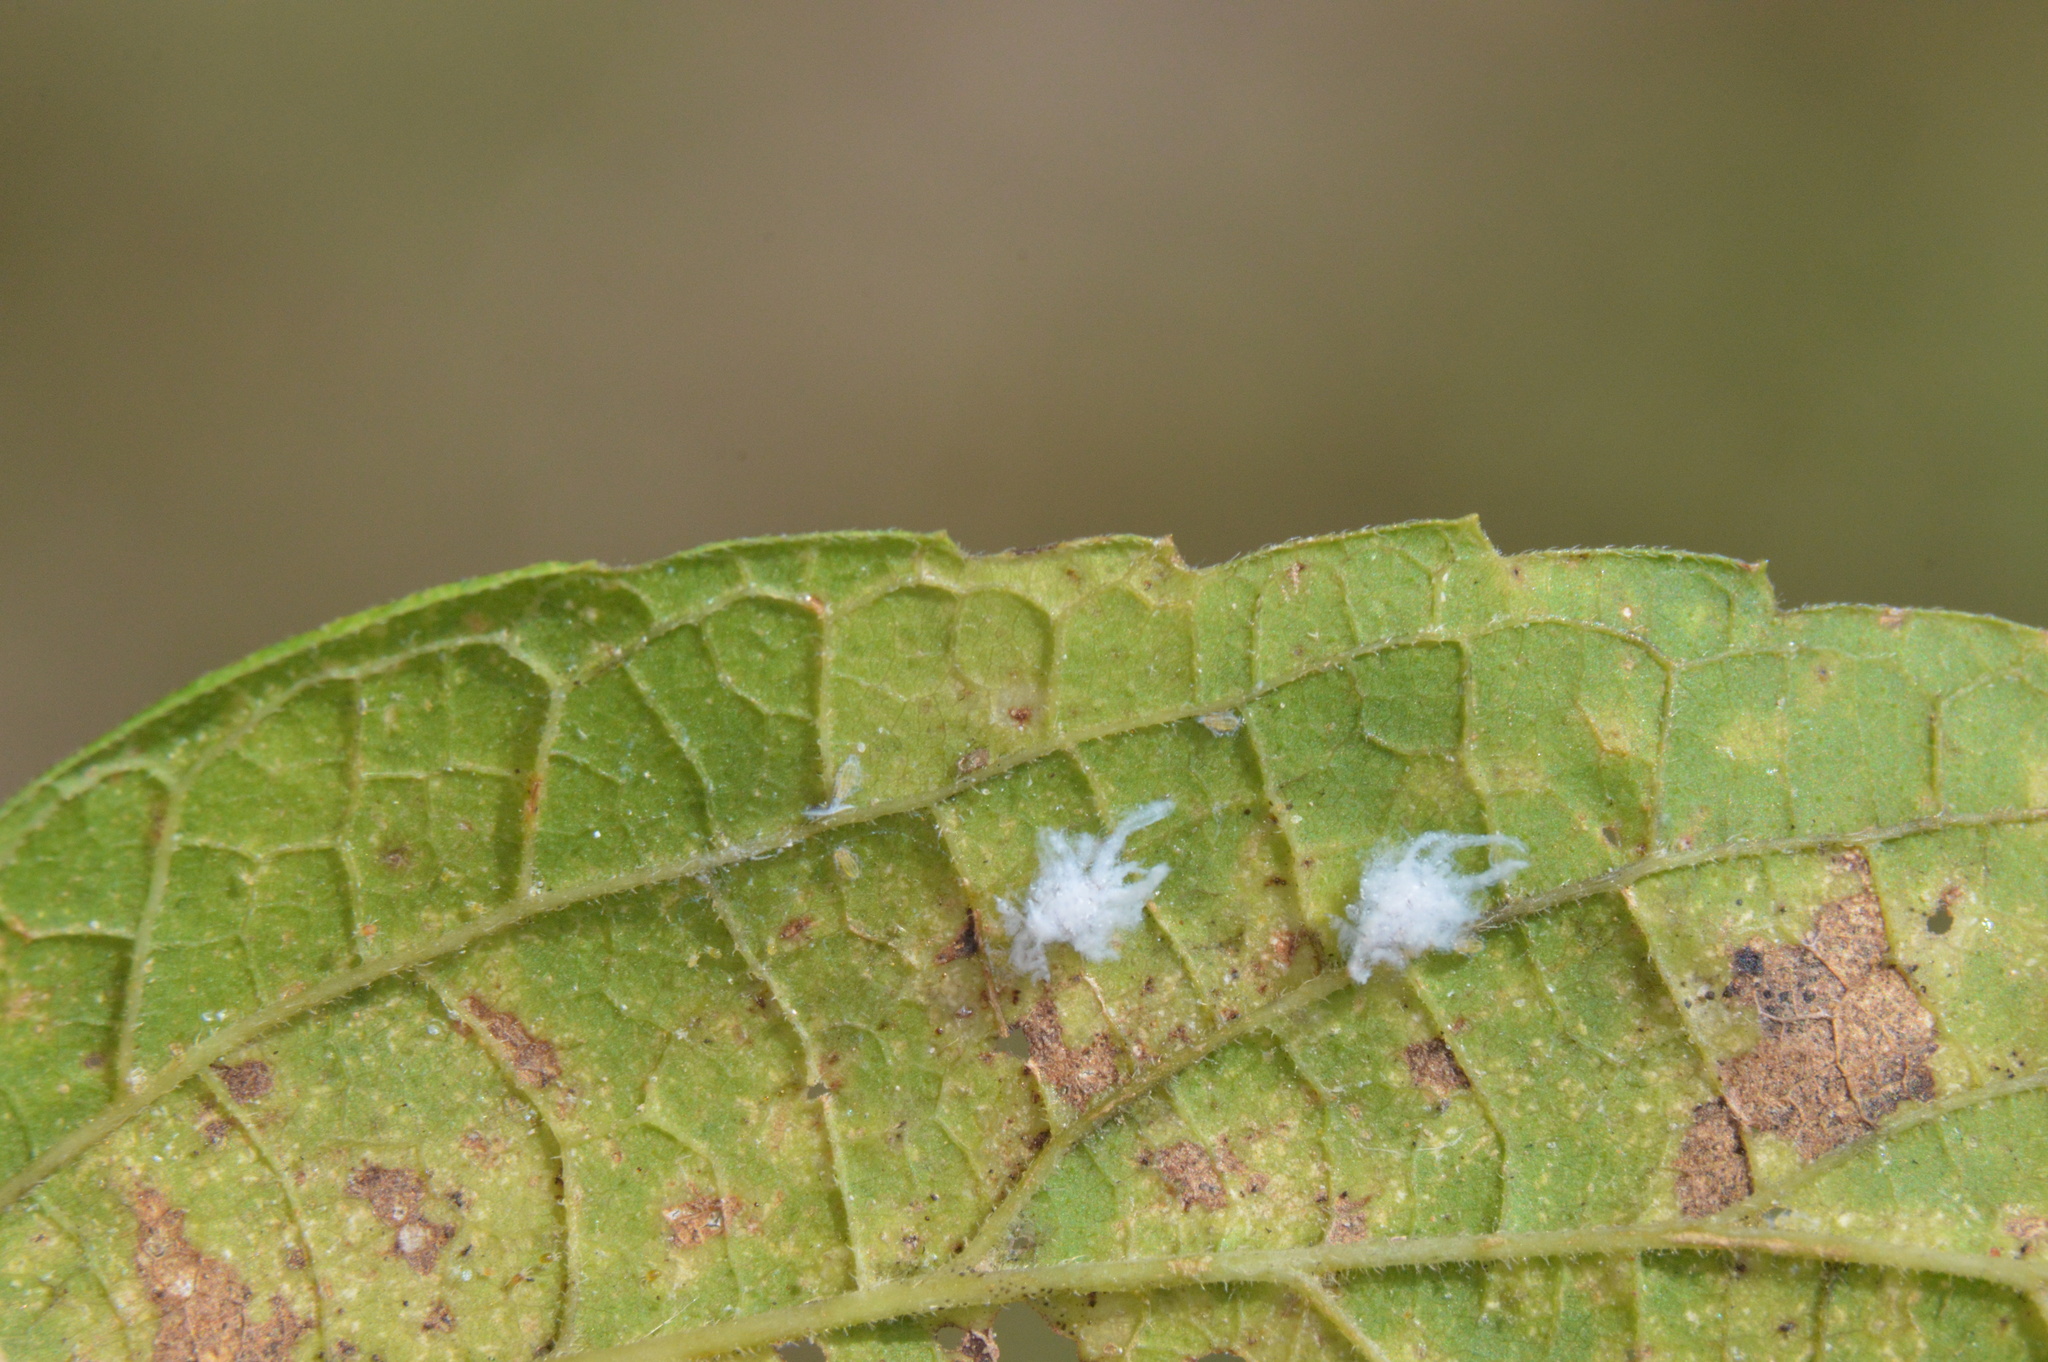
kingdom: Animalia
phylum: Arthropoda
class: Insecta
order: Hemiptera
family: Aphididae
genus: Shivaphis
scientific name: Shivaphis celti
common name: Asian wooly hackberry aphid
